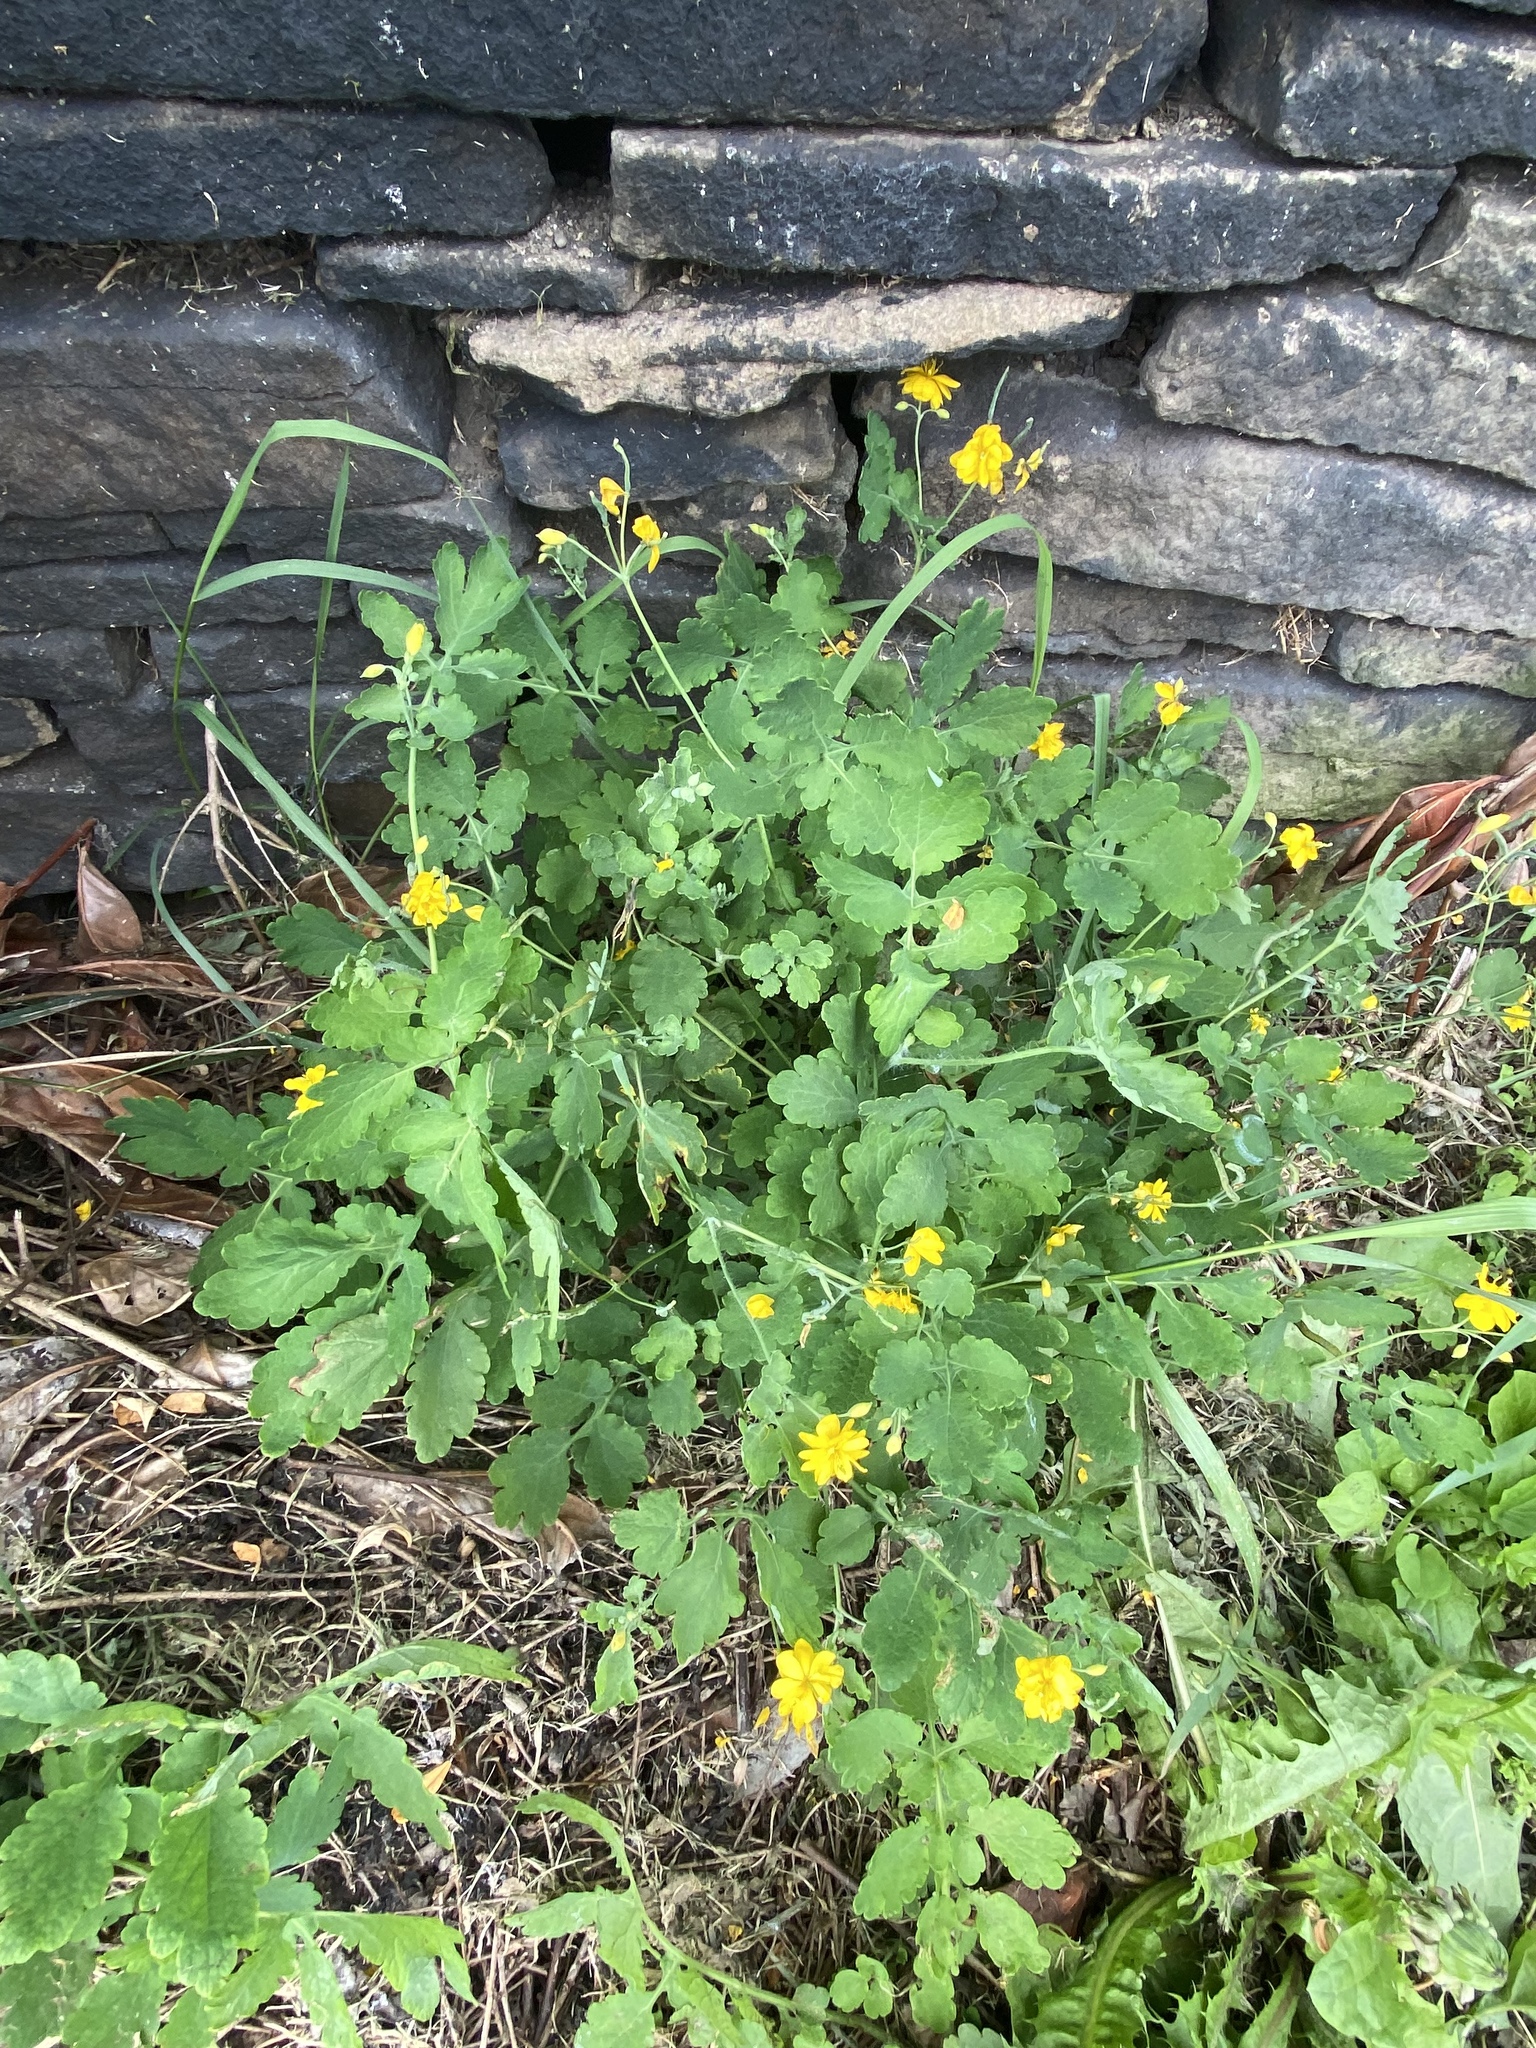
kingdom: Plantae
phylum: Tracheophyta
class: Magnoliopsida
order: Ranunculales
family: Papaveraceae
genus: Chelidonium
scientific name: Chelidonium majus
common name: Greater celandine
